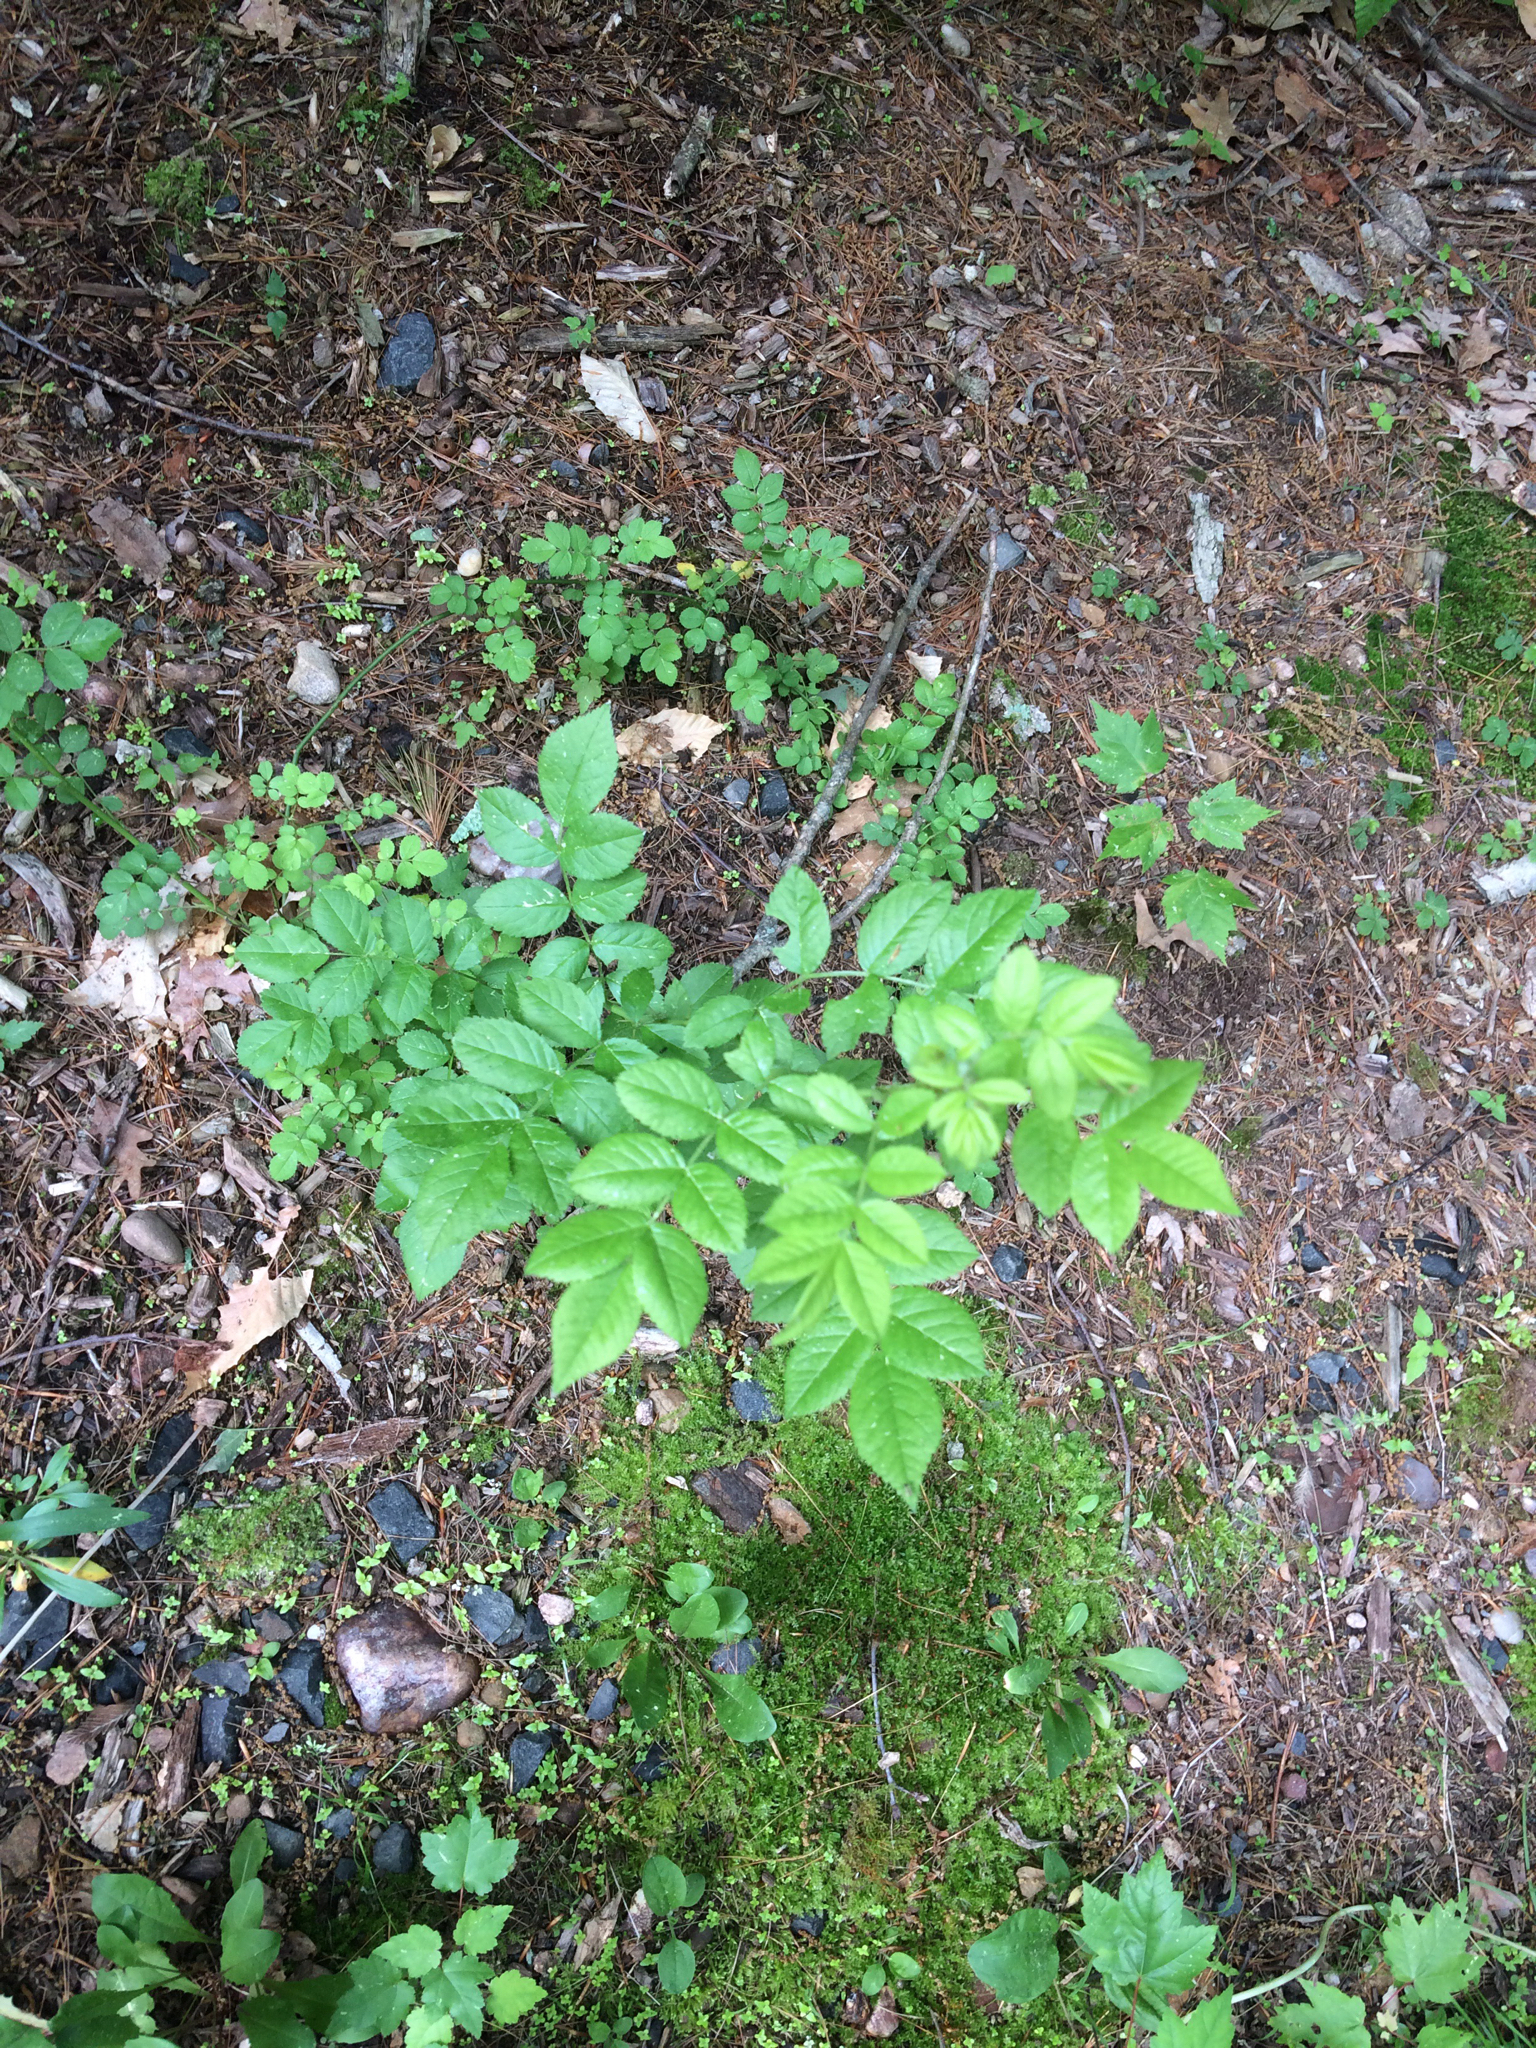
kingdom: Plantae
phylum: Tracheophyta
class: Magnoliopsida
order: Rosales
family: Rosaceae
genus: Rosa
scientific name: Rosa multiflora
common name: Multiflora rose
